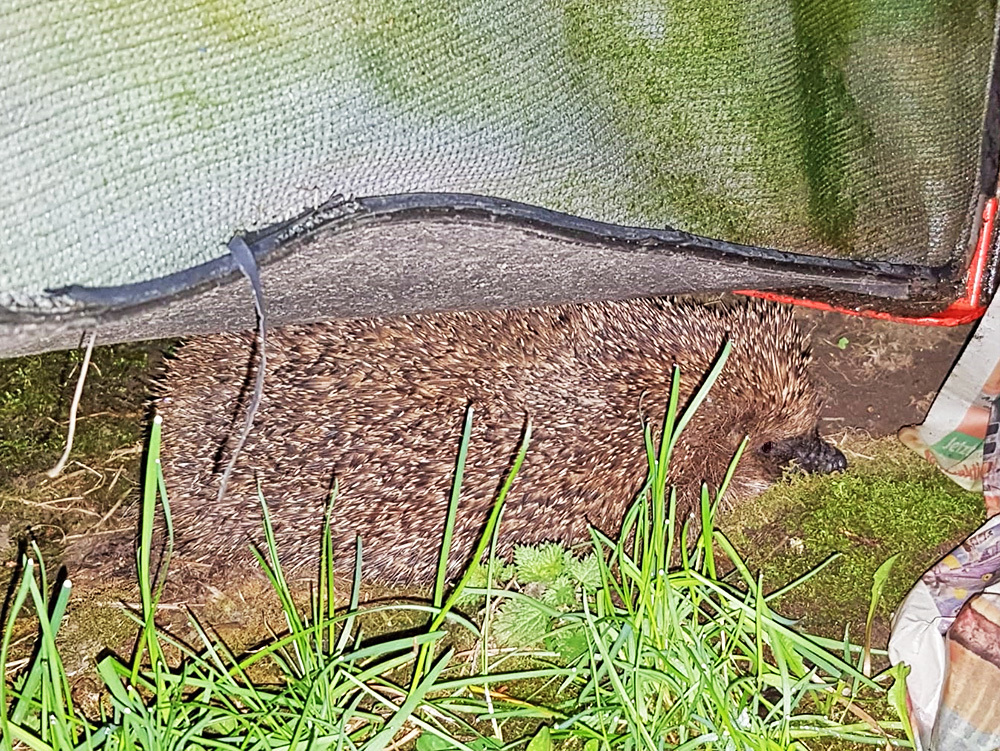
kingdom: Animalia
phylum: Chordata
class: Mammalia
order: Erinaceomorpha
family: Erinaceidae
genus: Erinaceus
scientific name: Erinaceus europaeus
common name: West european hedgehog
